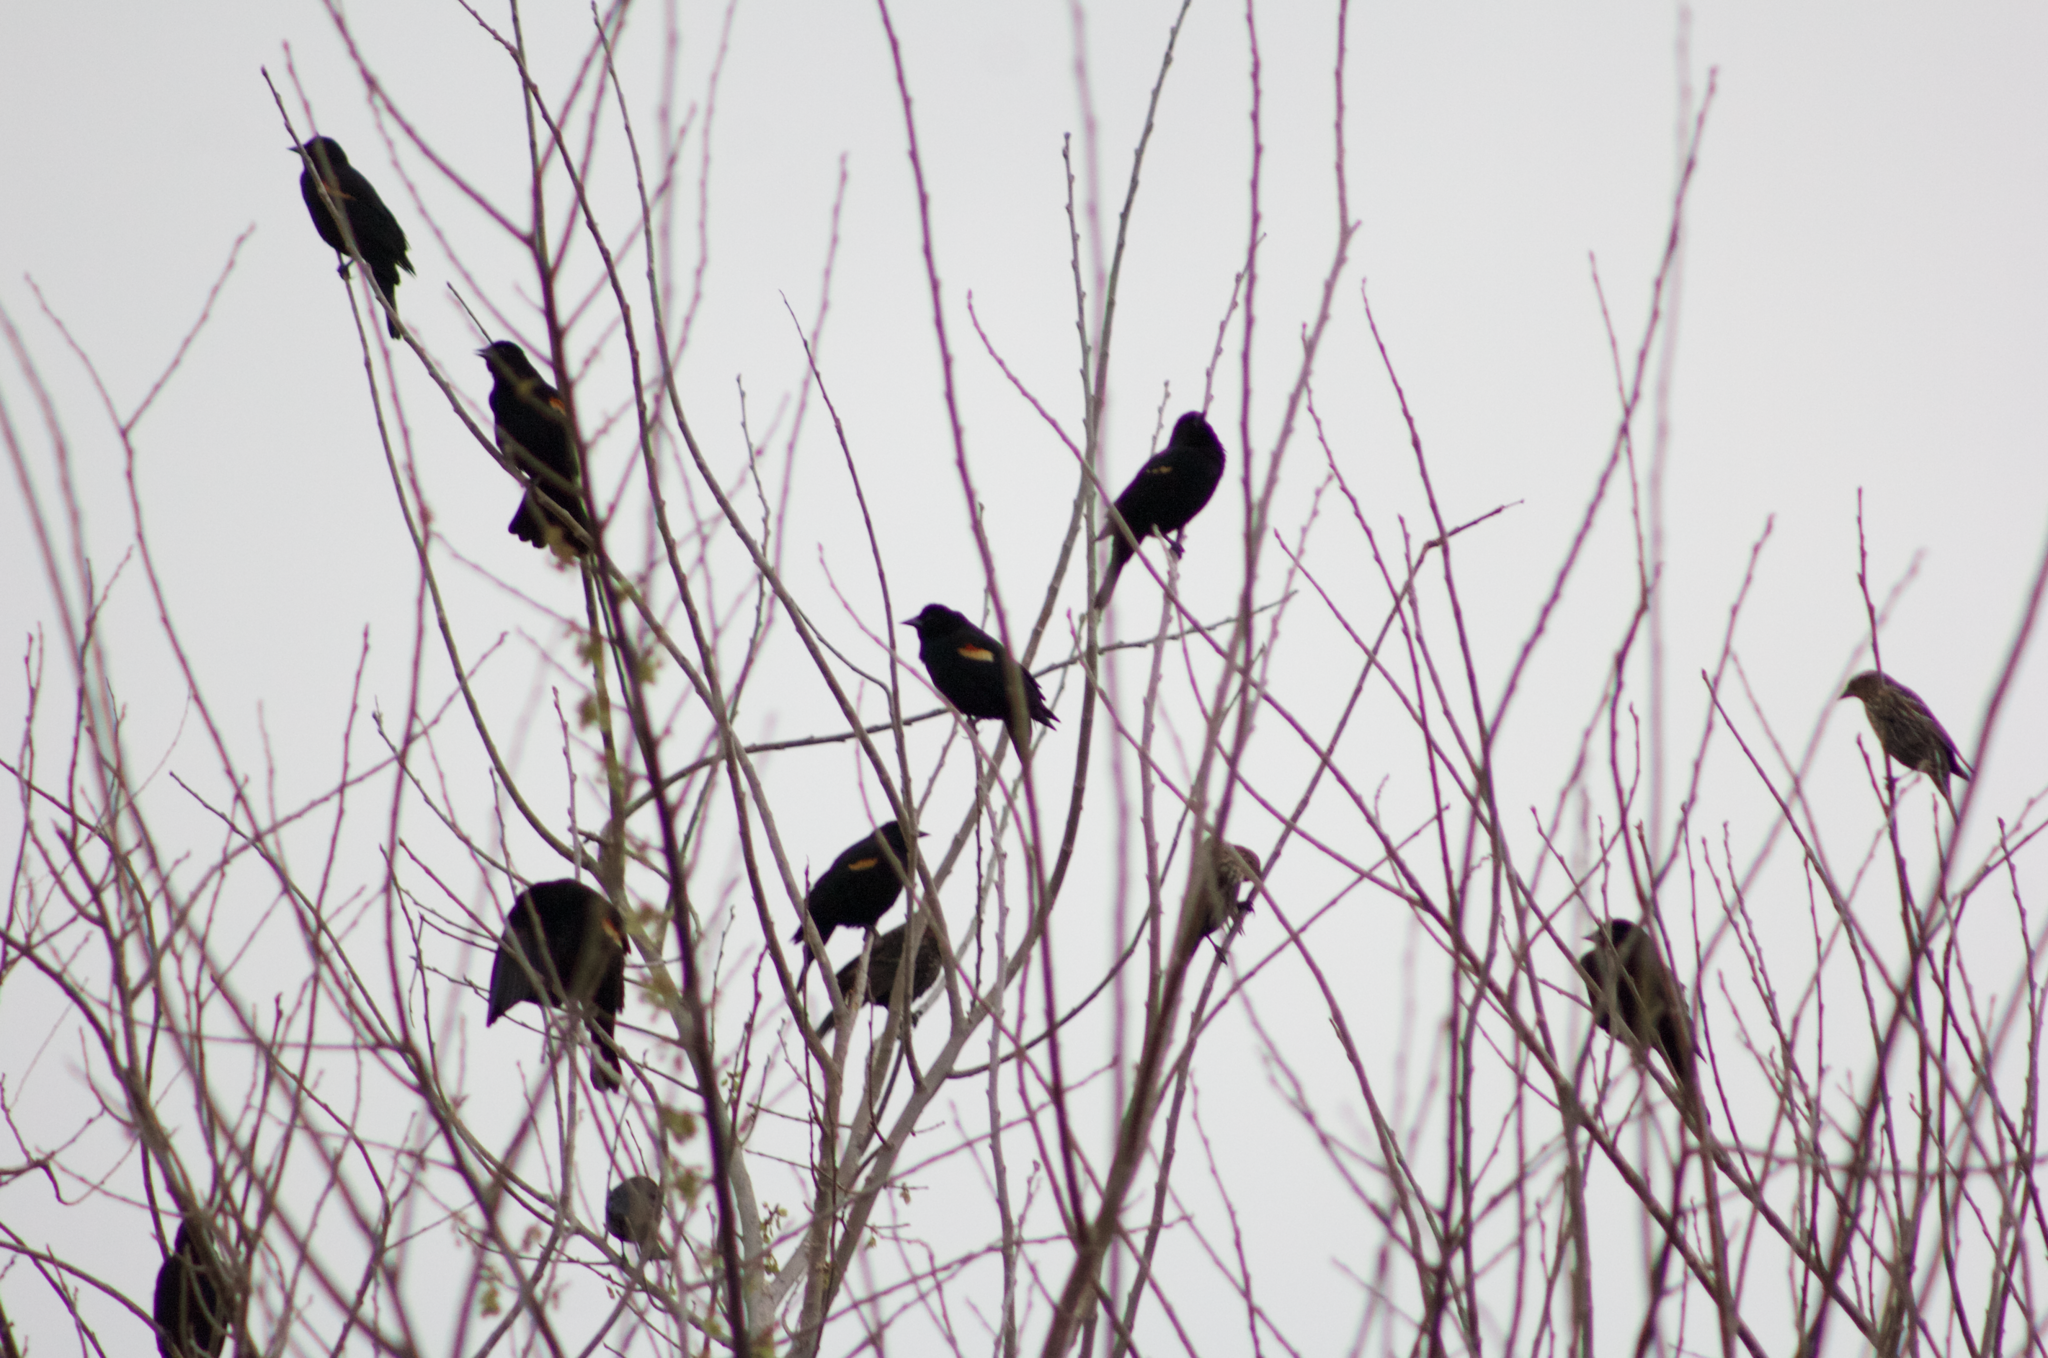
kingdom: Animalia
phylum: Chordata
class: Aves
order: Passeriformes
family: Icteridae
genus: Agelaius
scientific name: Agelaius phoeniceus
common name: Red-winged blackbird
